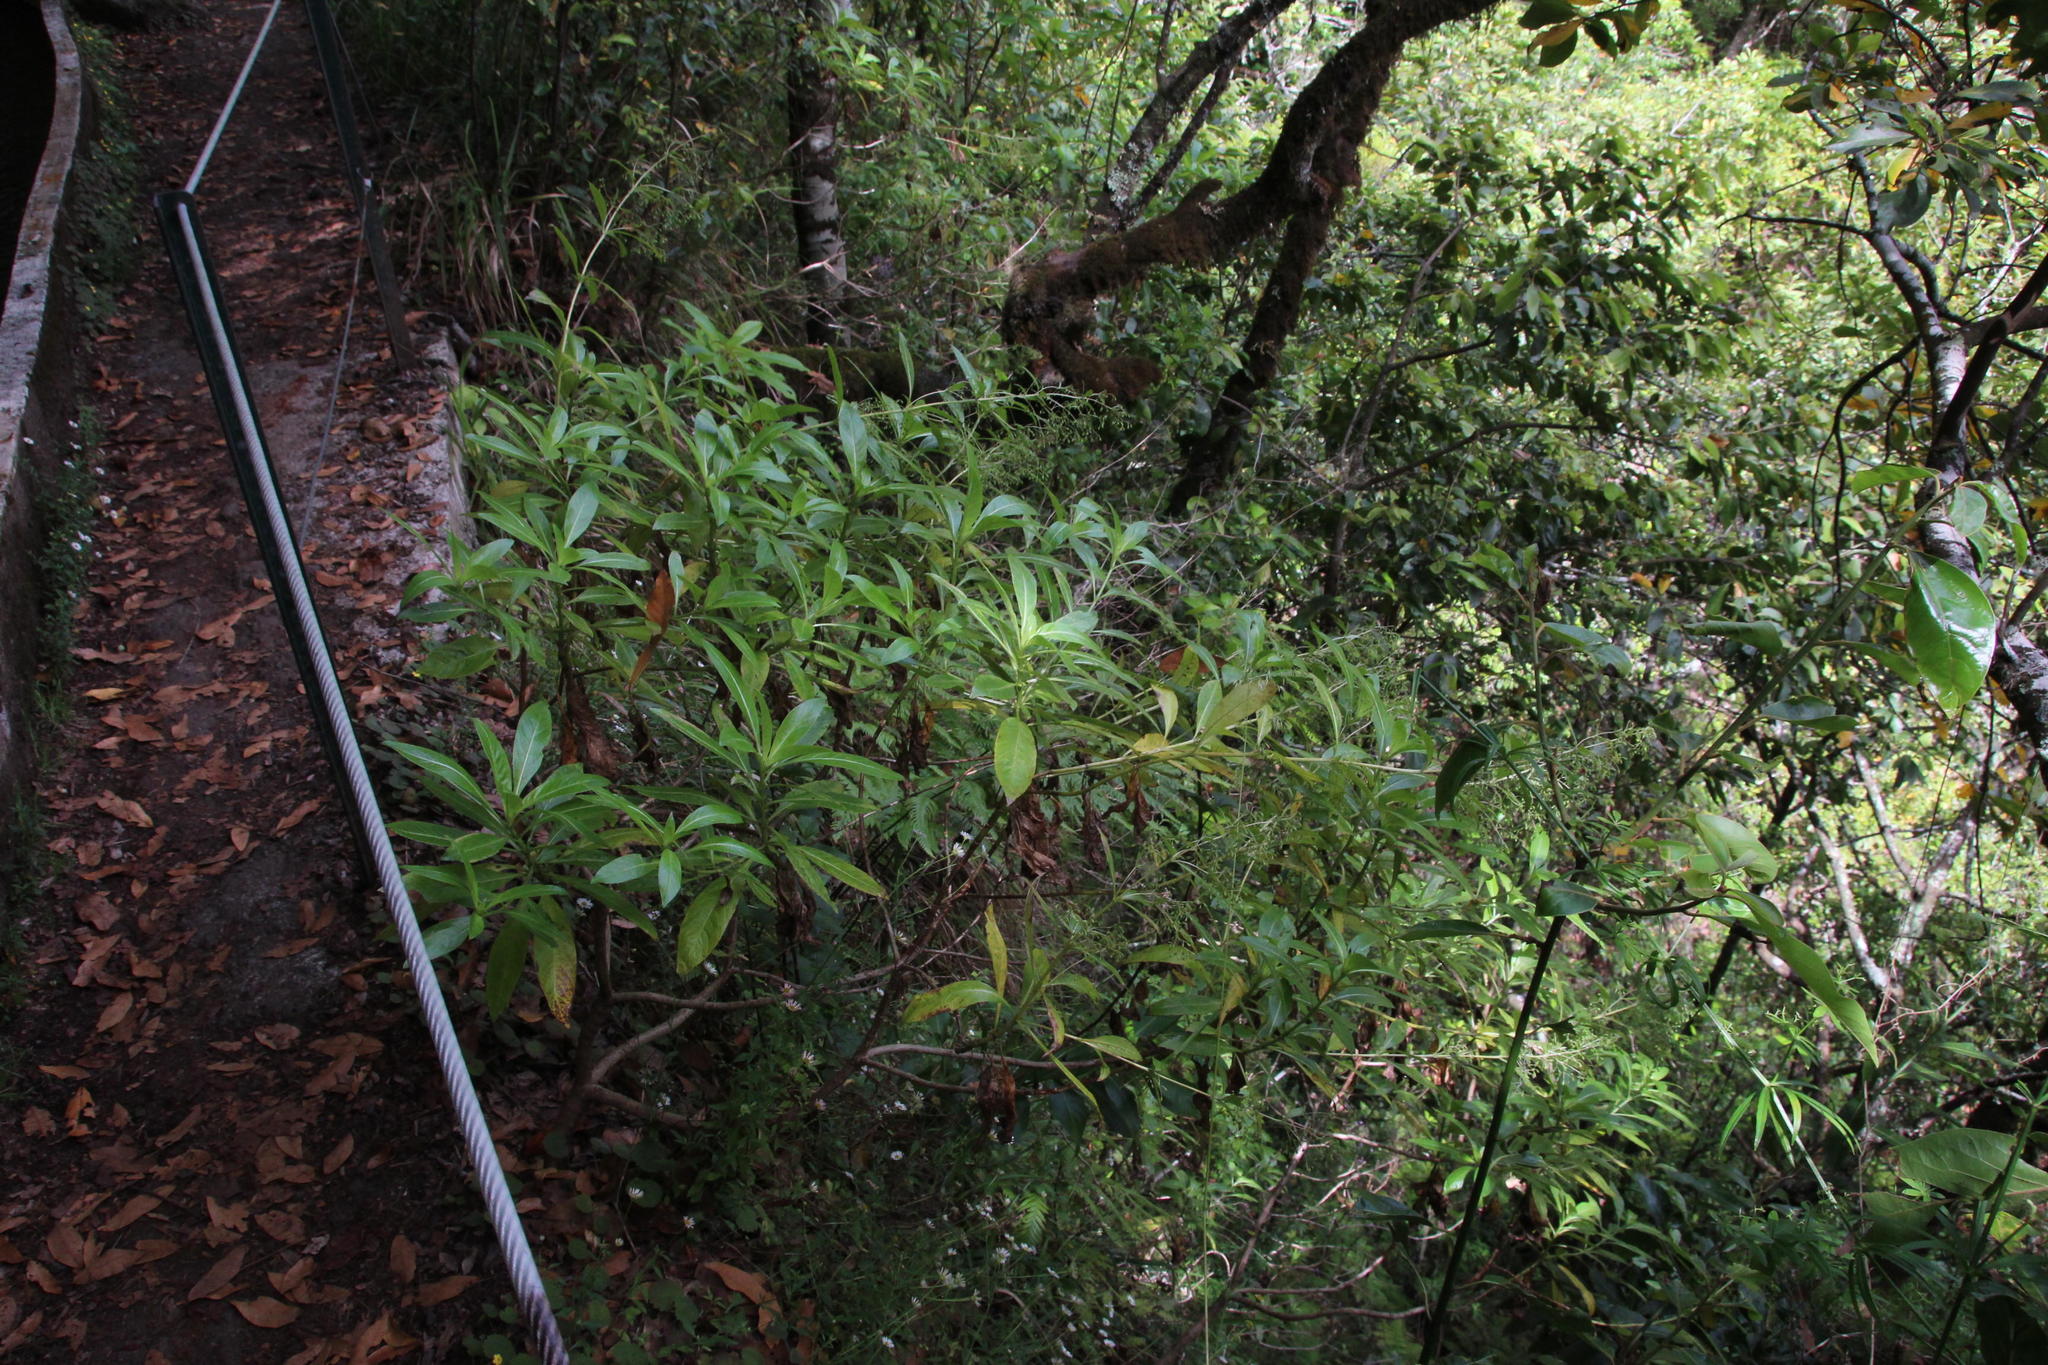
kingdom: Plantae
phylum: Tracheophyta
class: Magnoliopsida
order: Gentianales
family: Rubiaceae
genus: Phyllis
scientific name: Phyllis nobla
